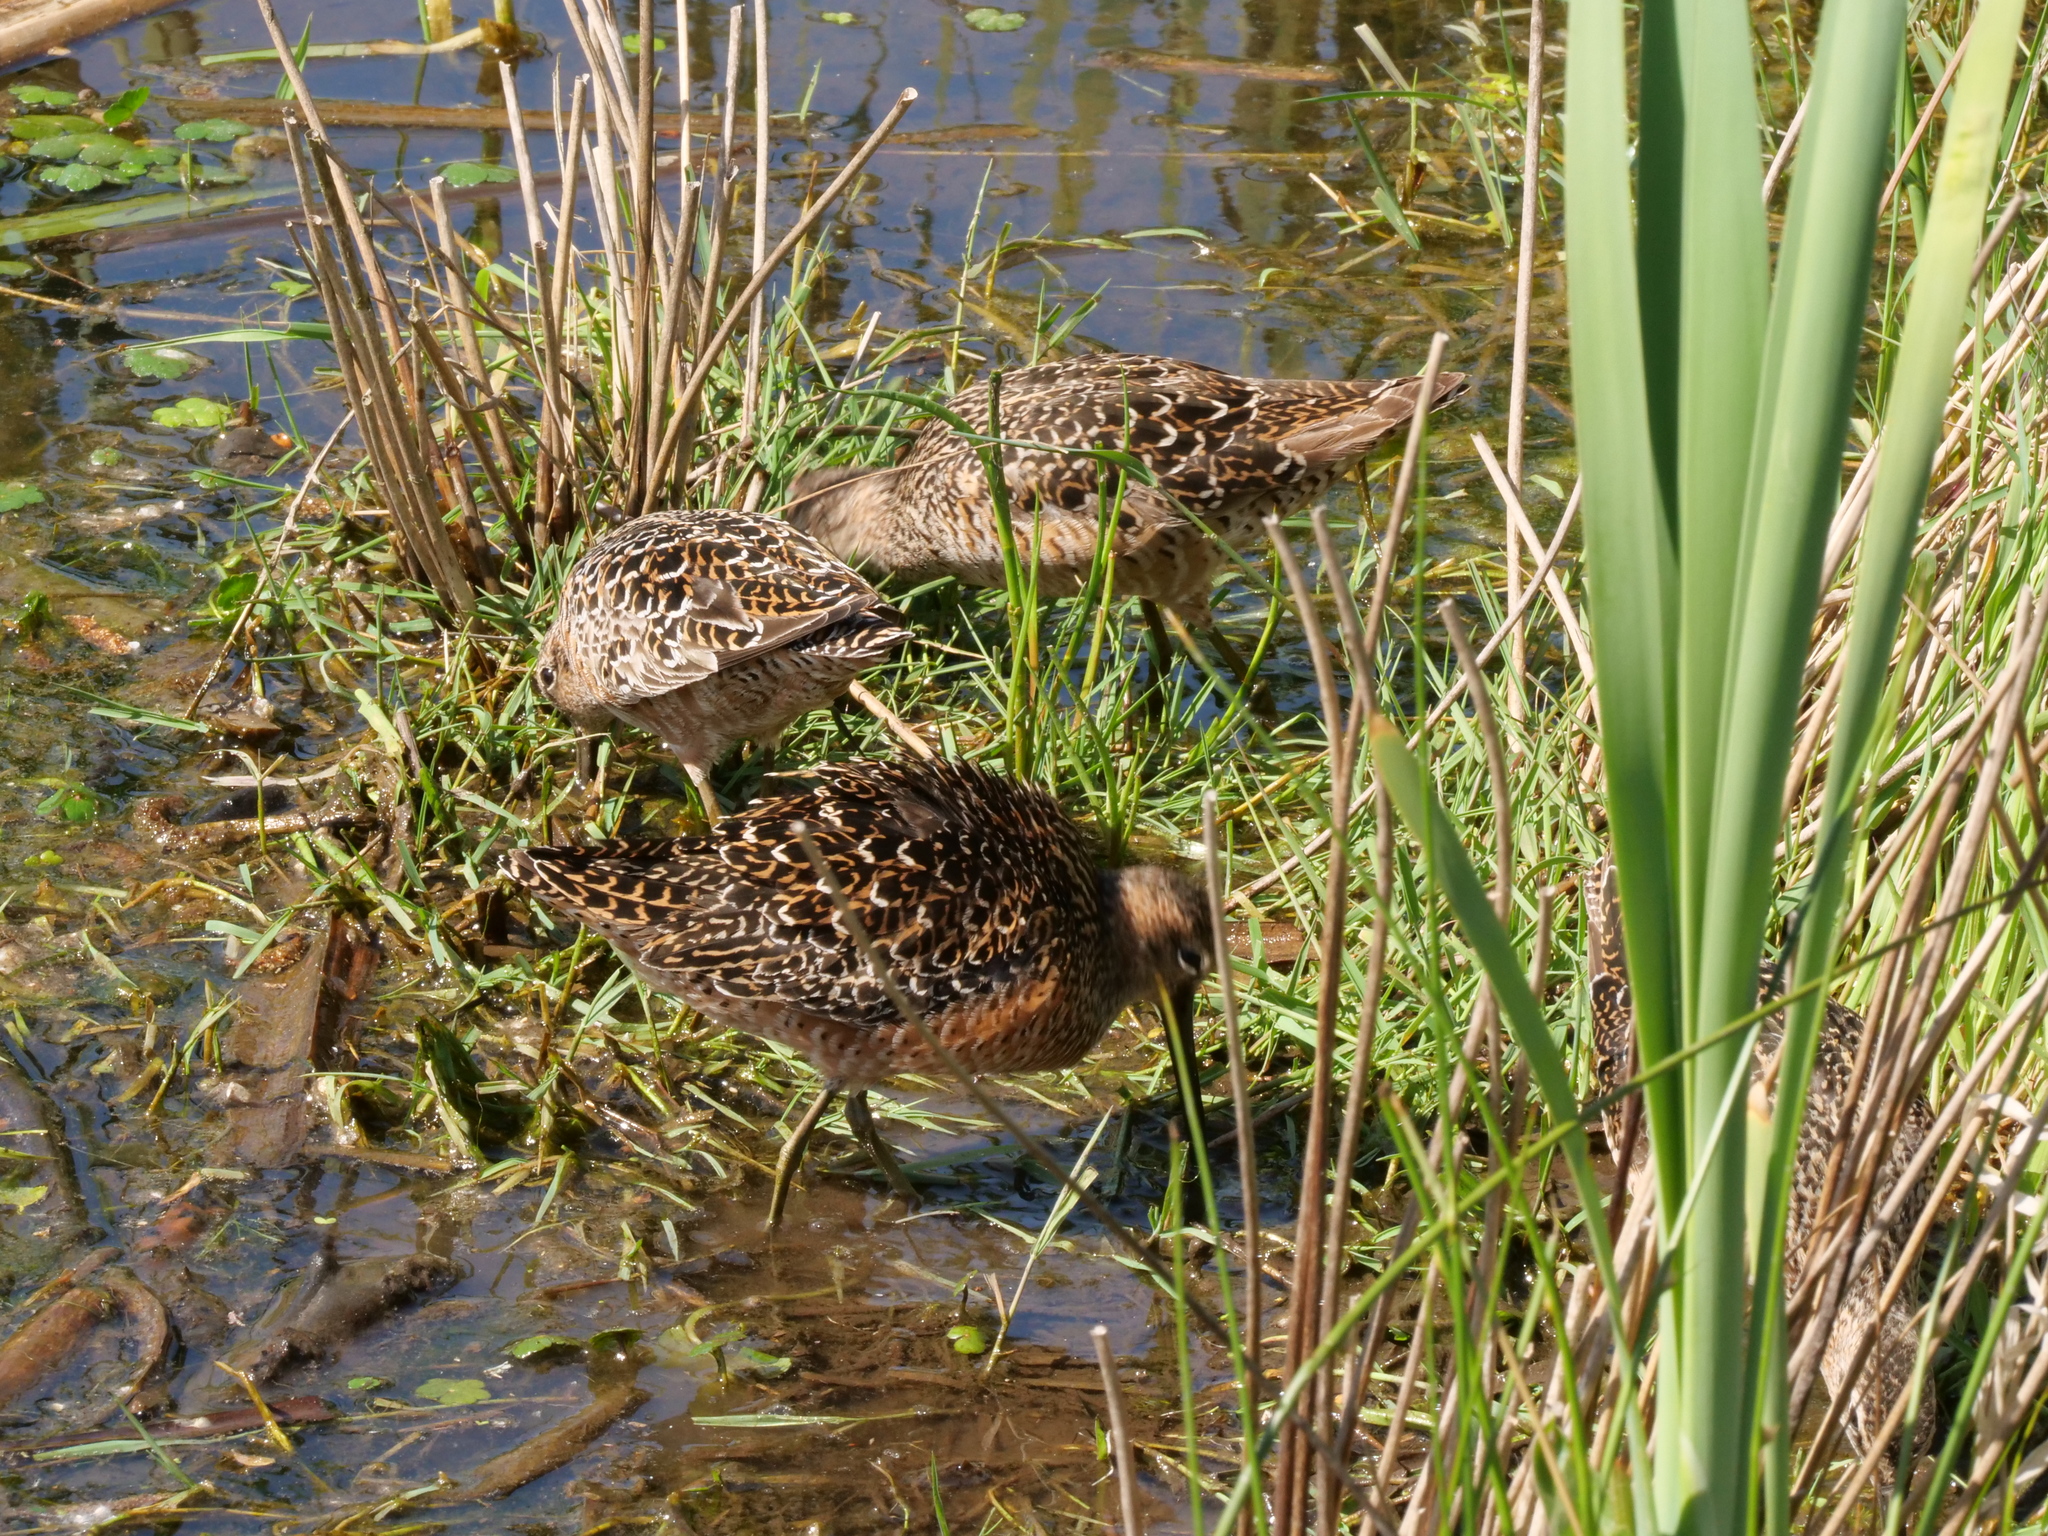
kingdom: Animalia
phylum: Chordata
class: Aves
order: Charadriiformes
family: Scolopacidae
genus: Limnodromus
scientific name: Limnodromus scolopaceus
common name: Long-billed dowitcher
